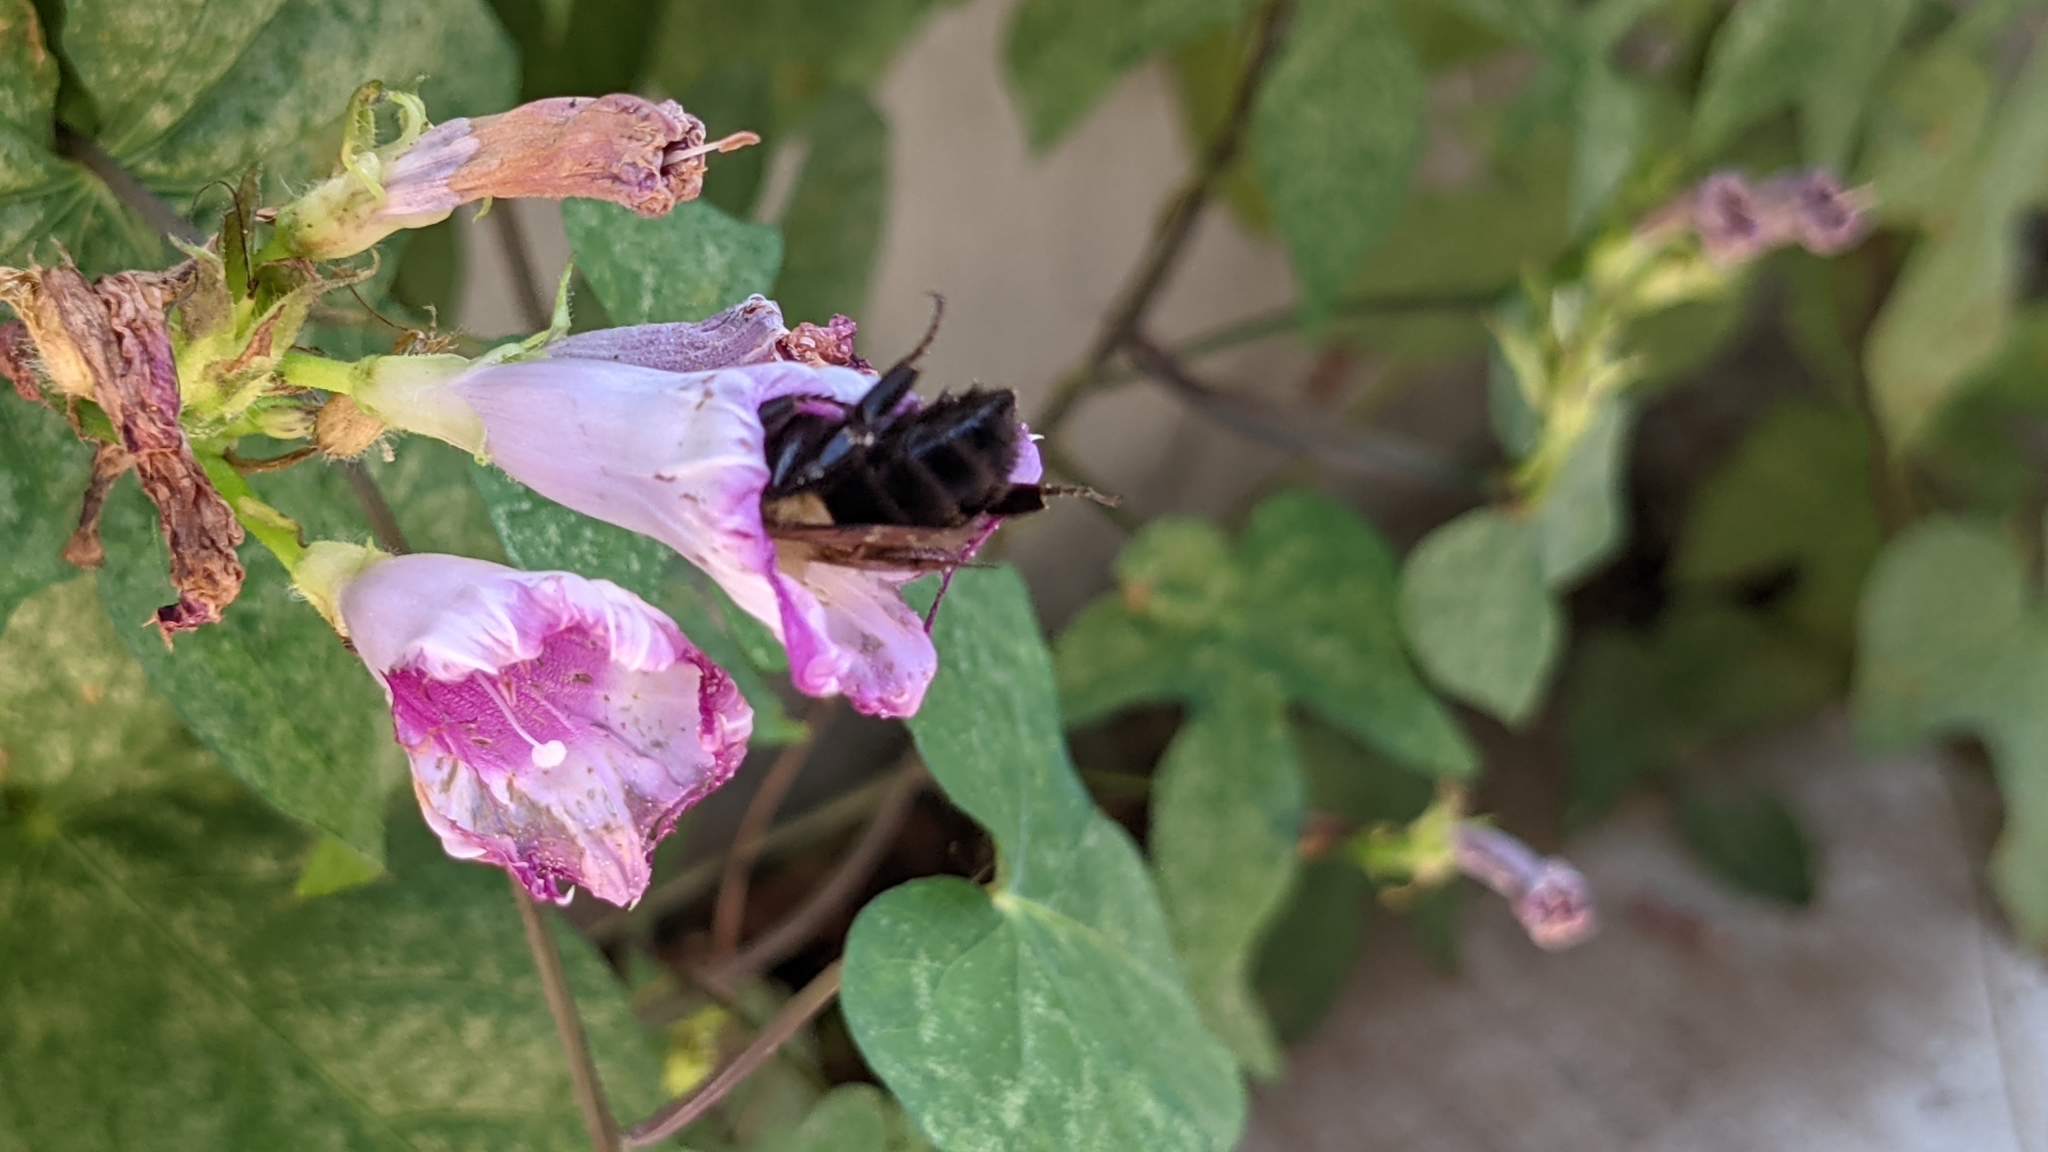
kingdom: Animalia
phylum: Arthropoda
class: Insecta
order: Hymenoptera
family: Apidae
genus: Bombus
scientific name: Bombus impatiens
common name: Common eastern bumble bee
